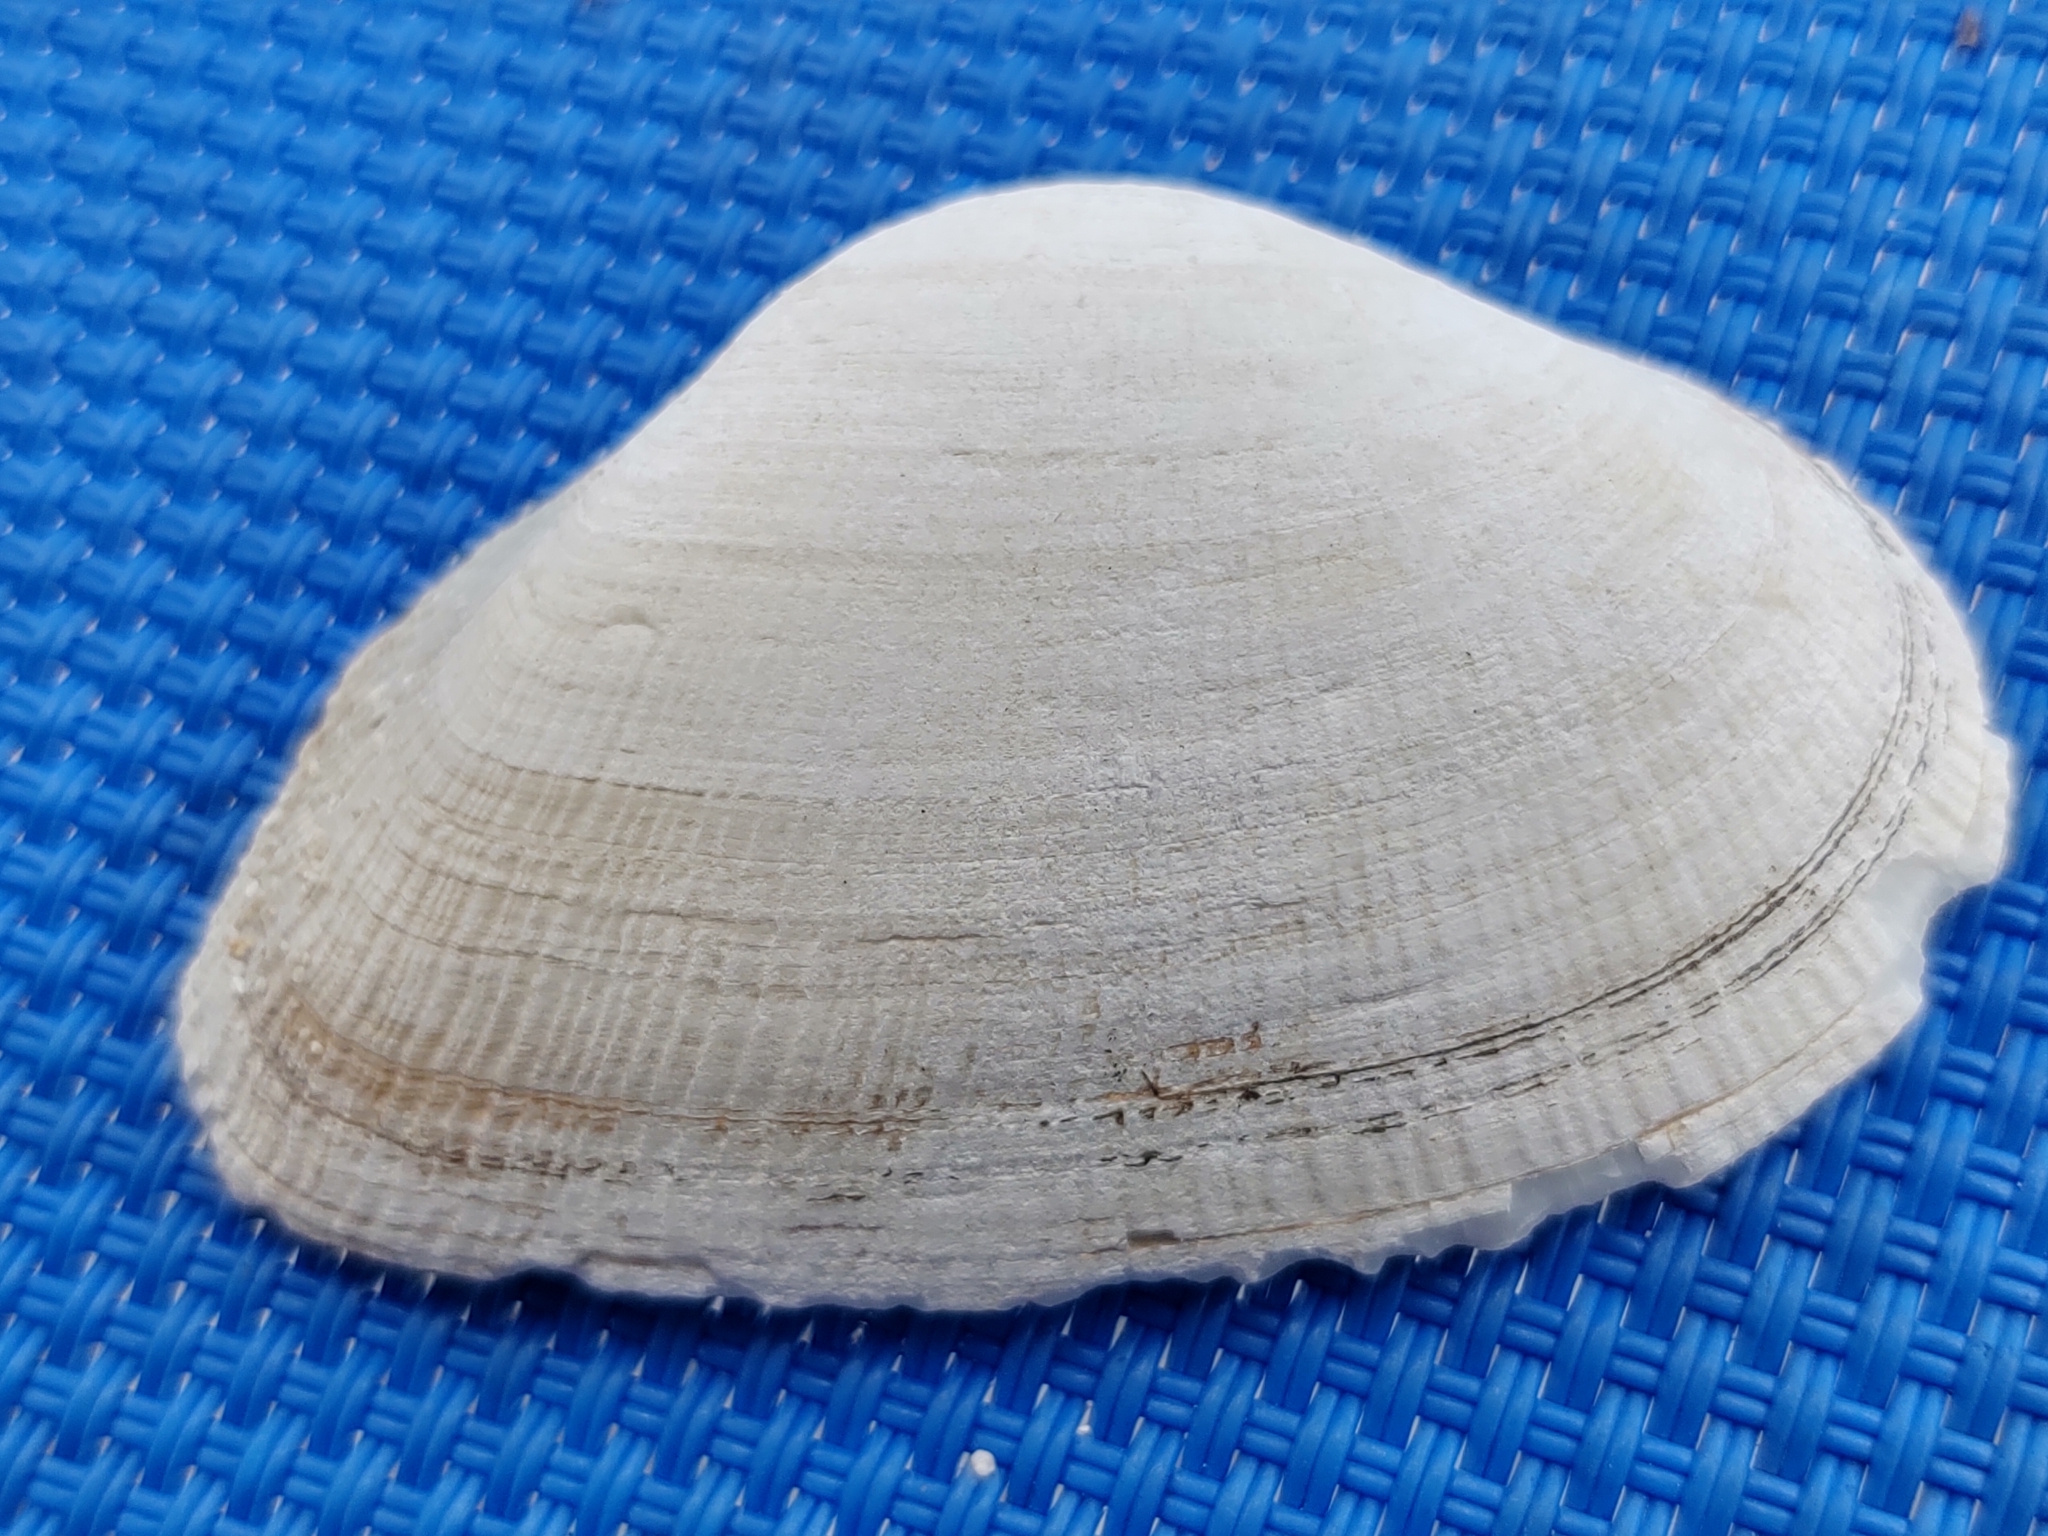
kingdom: Animalia
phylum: Mollusca
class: Bivalvia
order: Cardiida
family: Psammobiidae
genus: Asaphis
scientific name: Asaphis deflorata
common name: Gaudy asaphis
